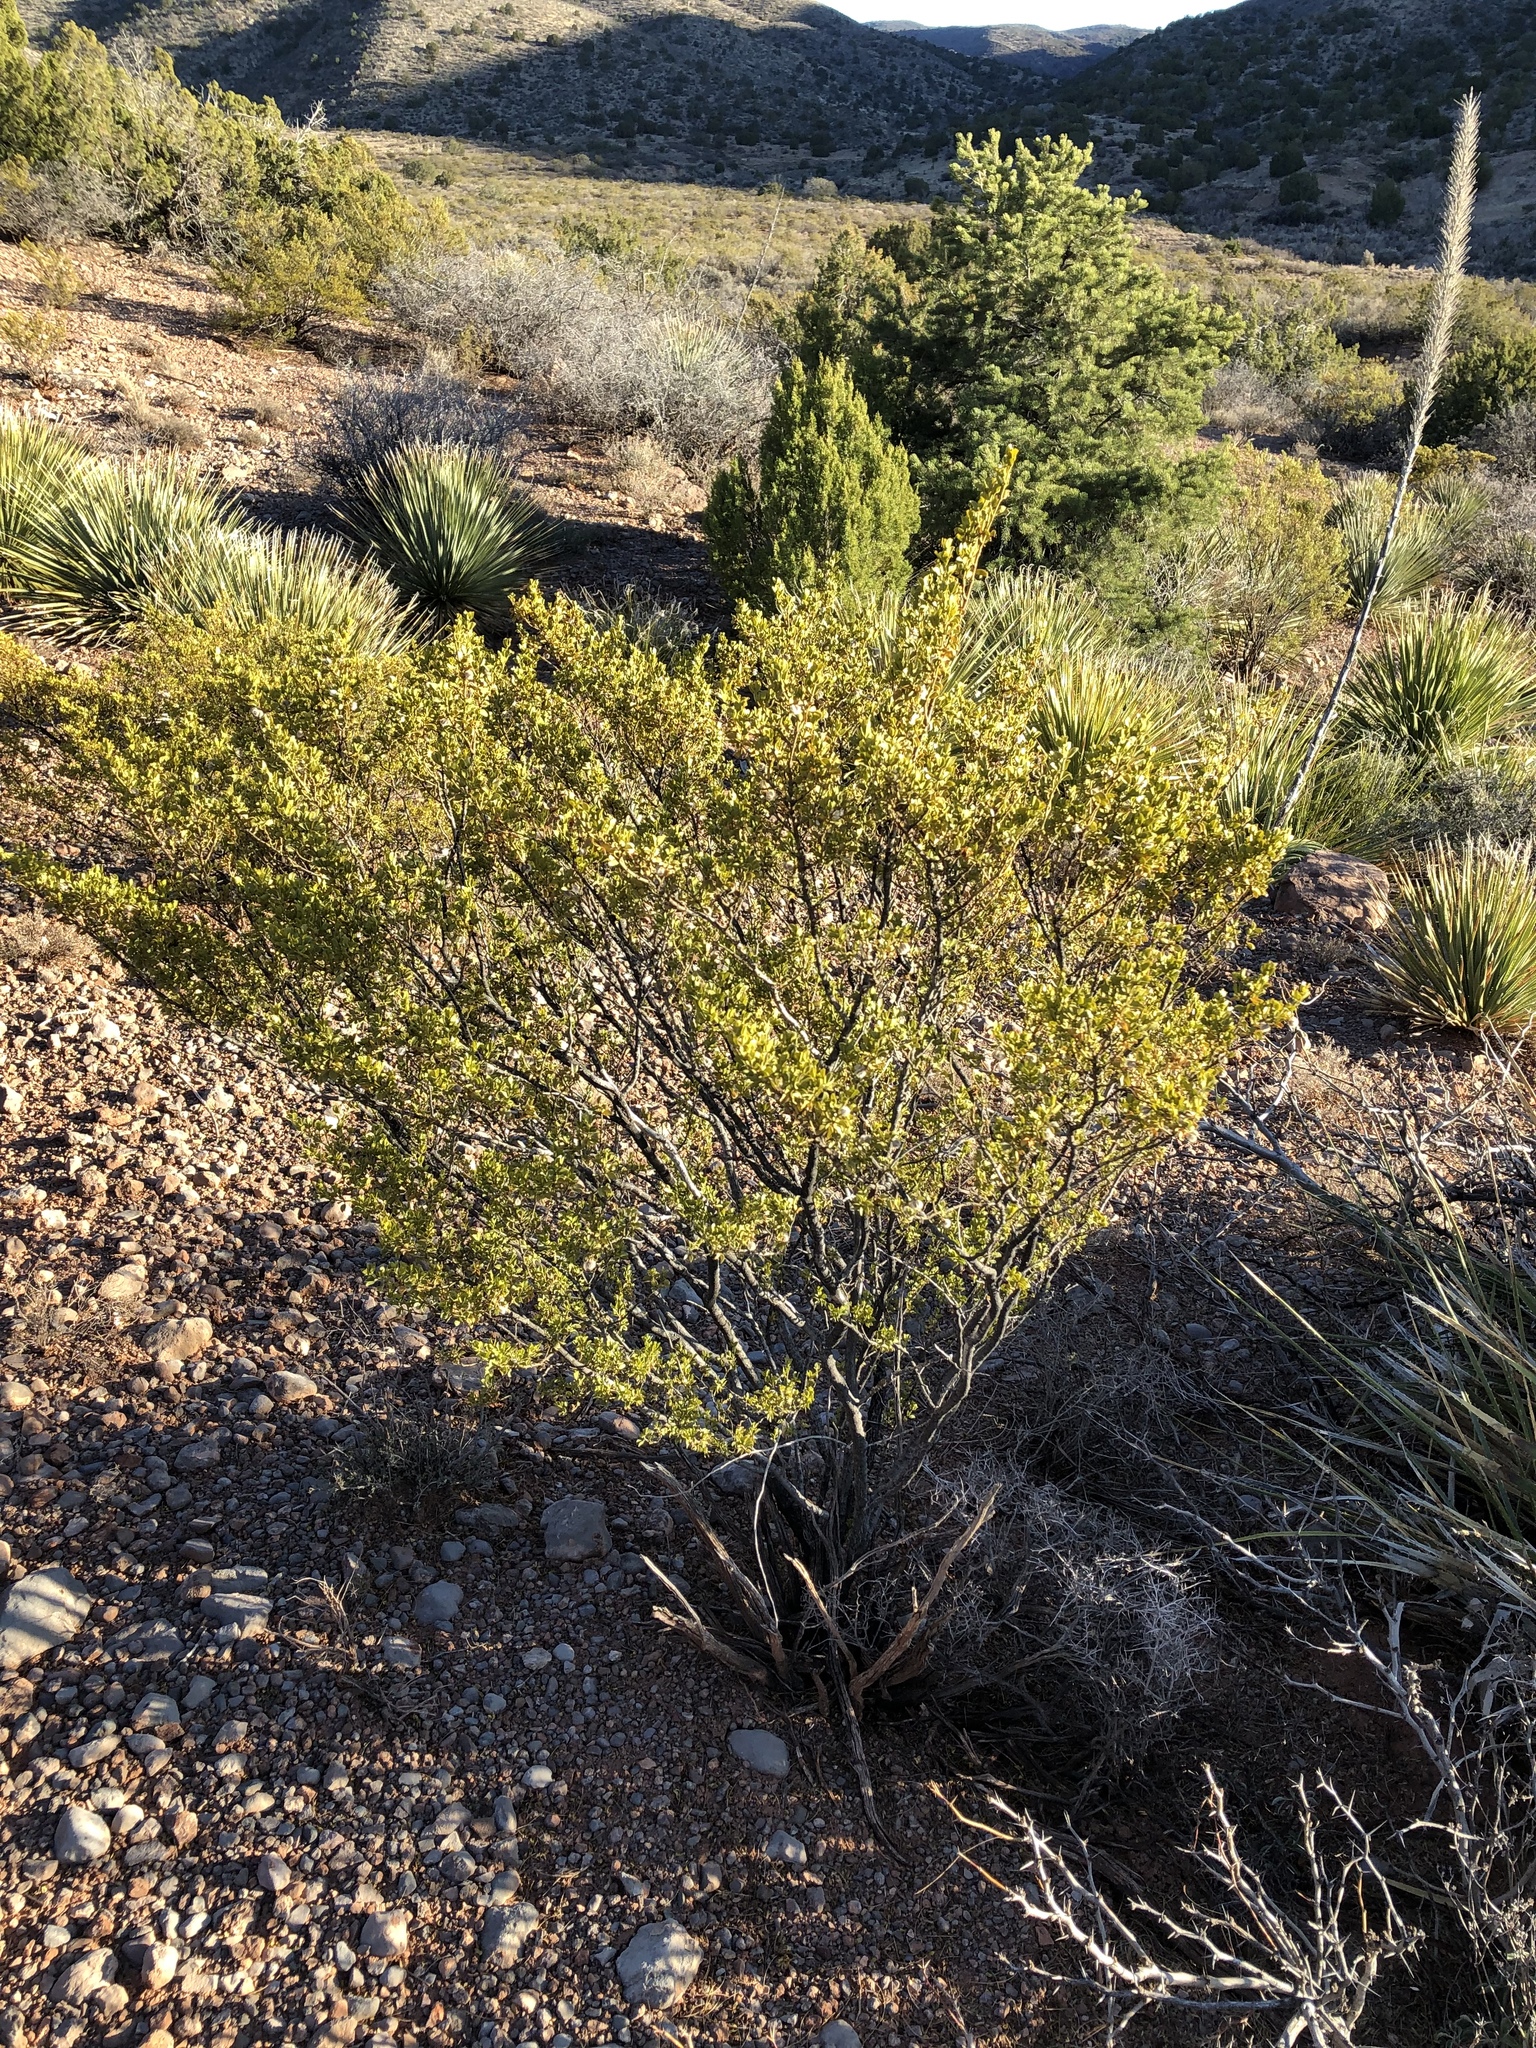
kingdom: Plantae
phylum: Tracheophyta
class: Magnoliopsida
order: Zygophyllales
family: Zygophyllaceae
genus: Larrea
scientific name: Larrea tridentata
